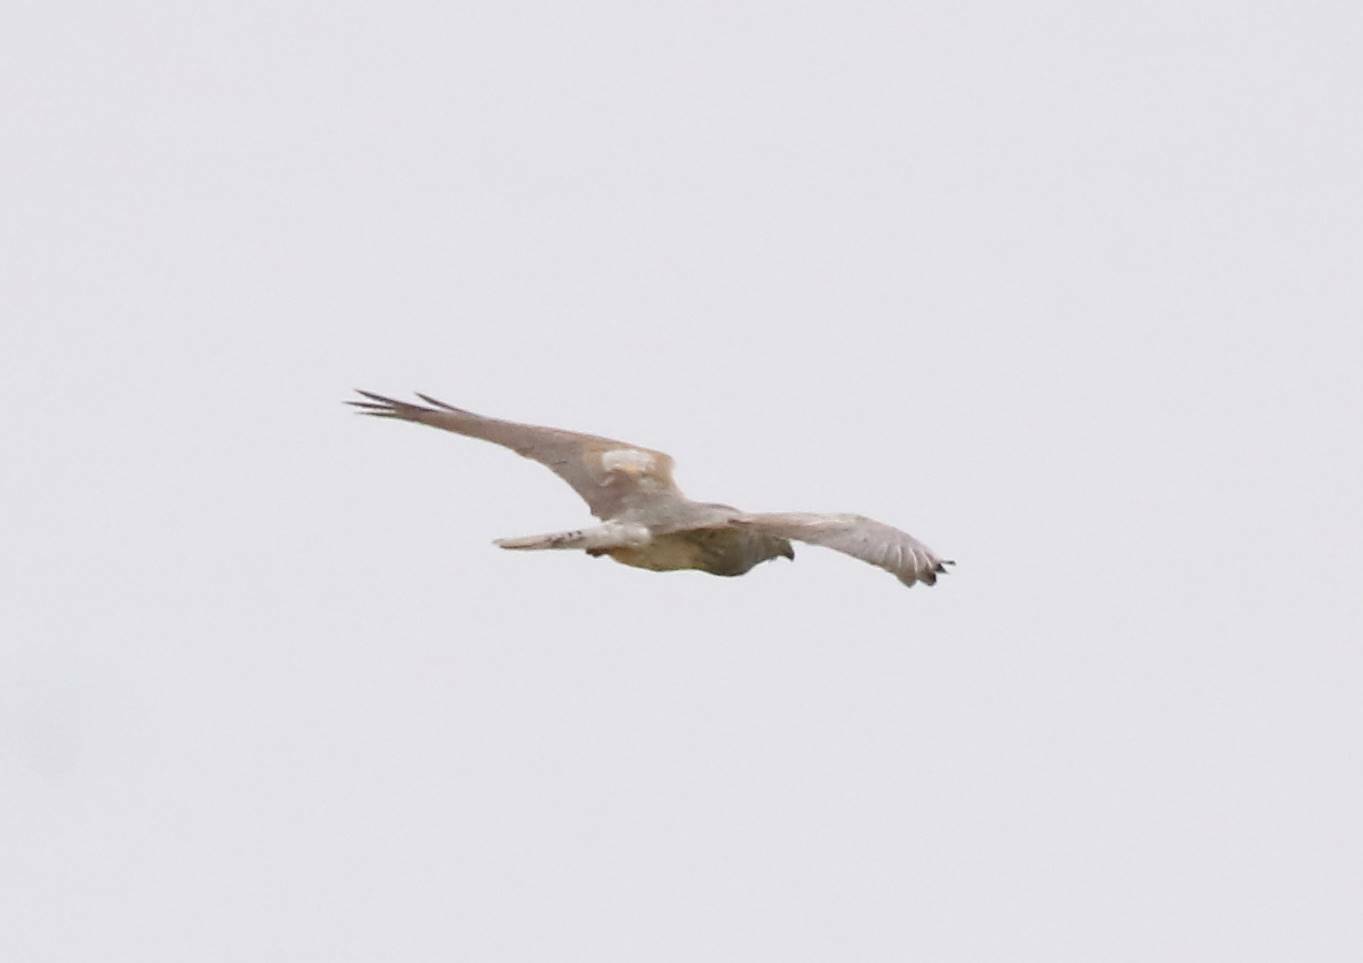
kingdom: Animalia
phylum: Chordata
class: Aves
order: Accipitriformes
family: Accipitridae
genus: Circus
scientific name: Circus pygargus
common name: Montagu's harrier
